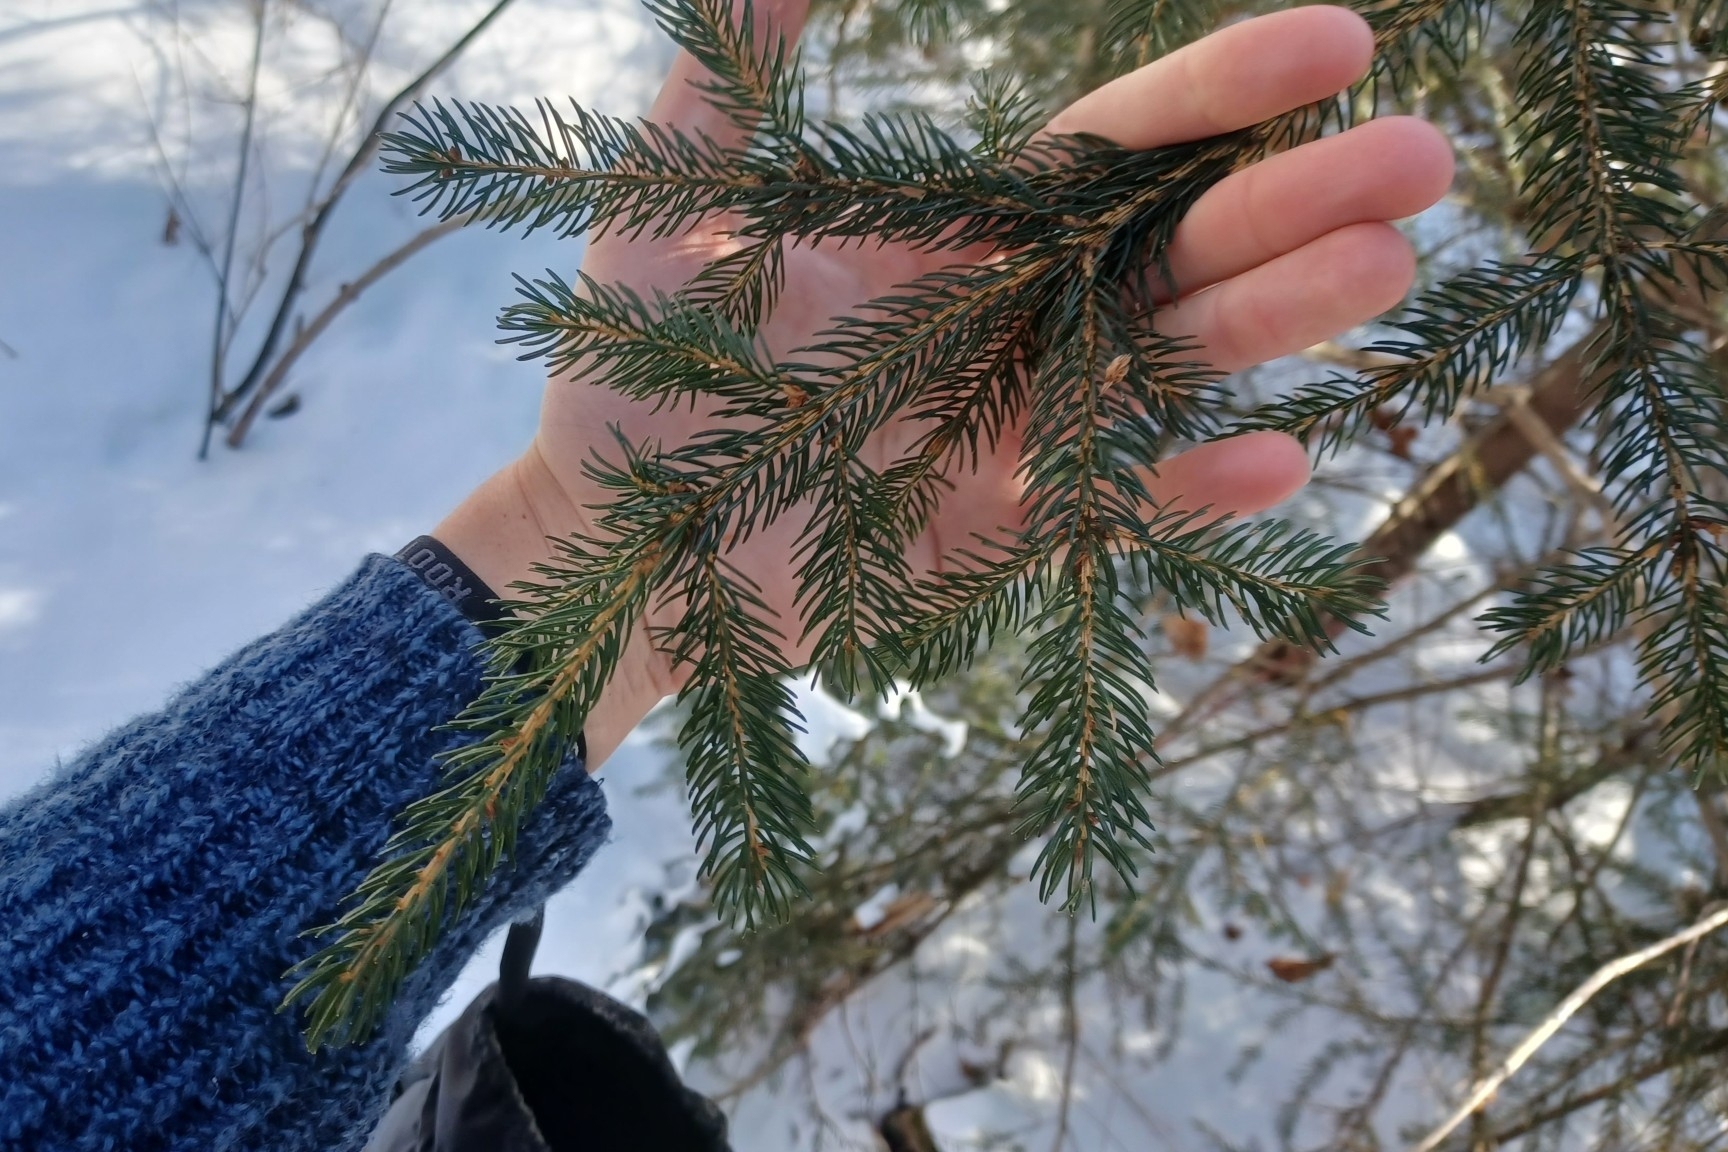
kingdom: Plantae
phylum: Tracheophyta
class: Pinopsida
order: Pinales
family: Pinaceae
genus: Picea
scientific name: Picea rubens
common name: Red spruce
